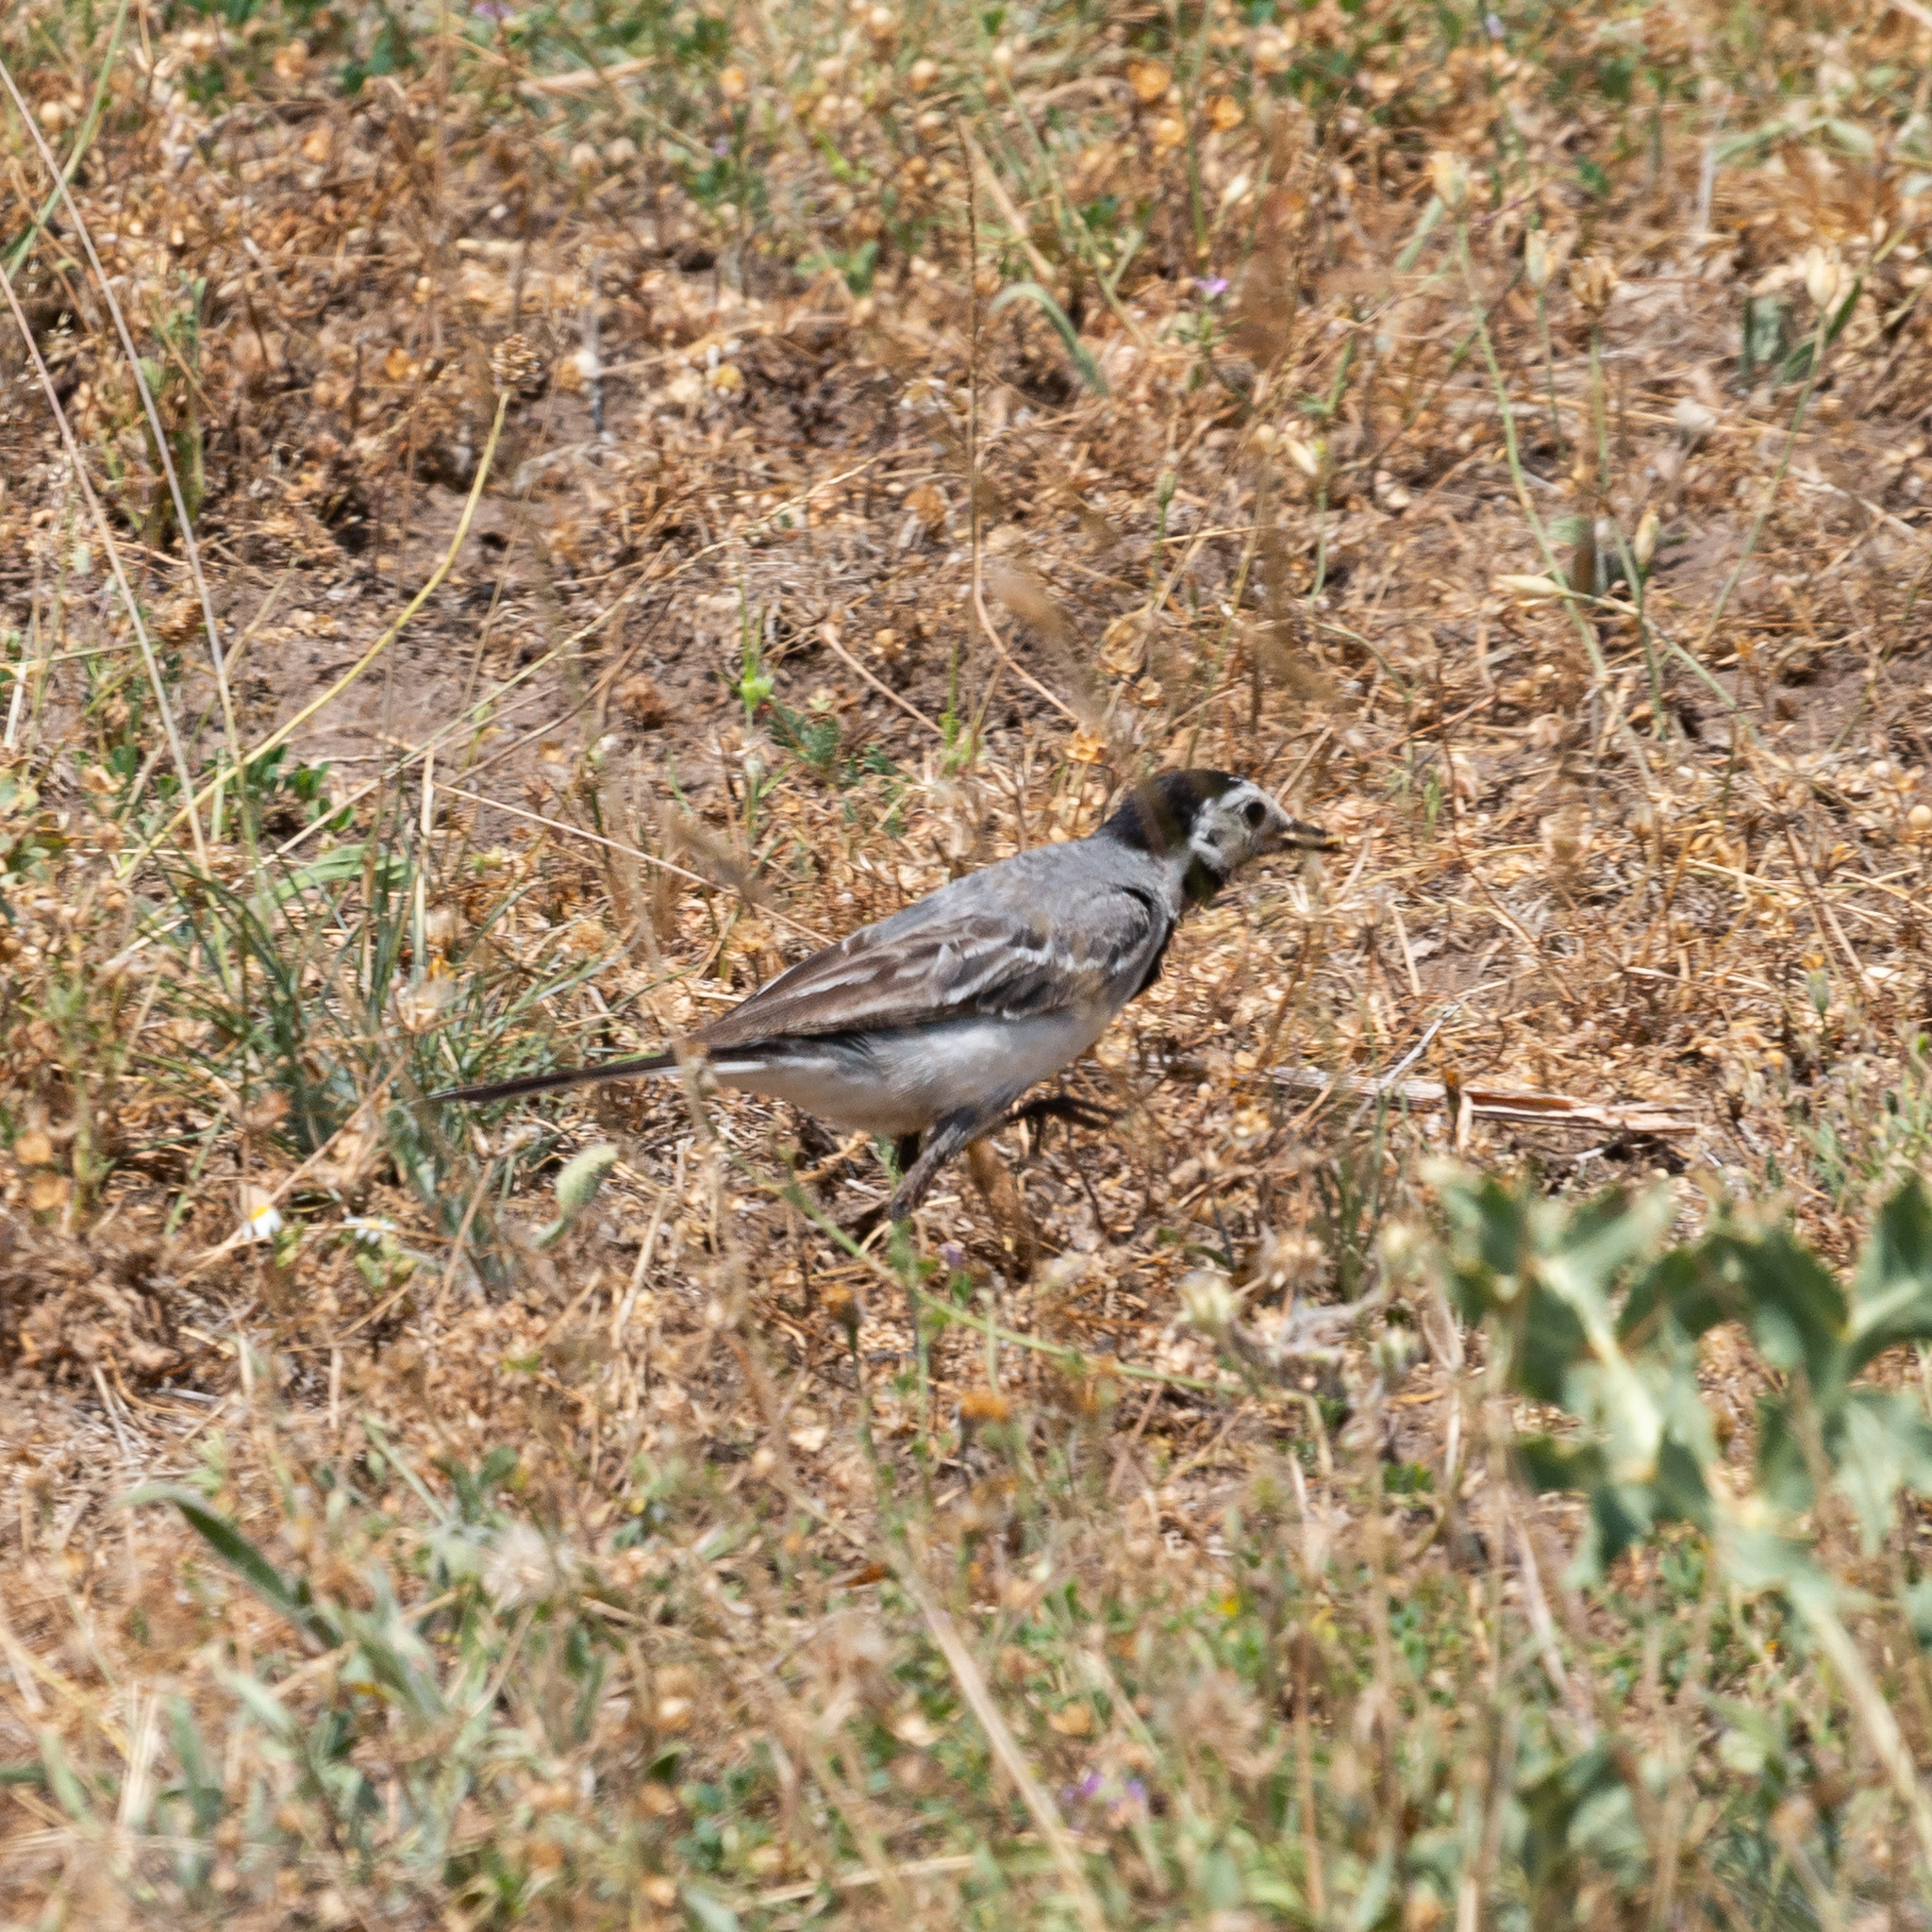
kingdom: Animalia
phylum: Chordata
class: Aves
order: Passeriformes
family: Motacillidae
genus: Motacilla
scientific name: Motacilla alba
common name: White wagtail
